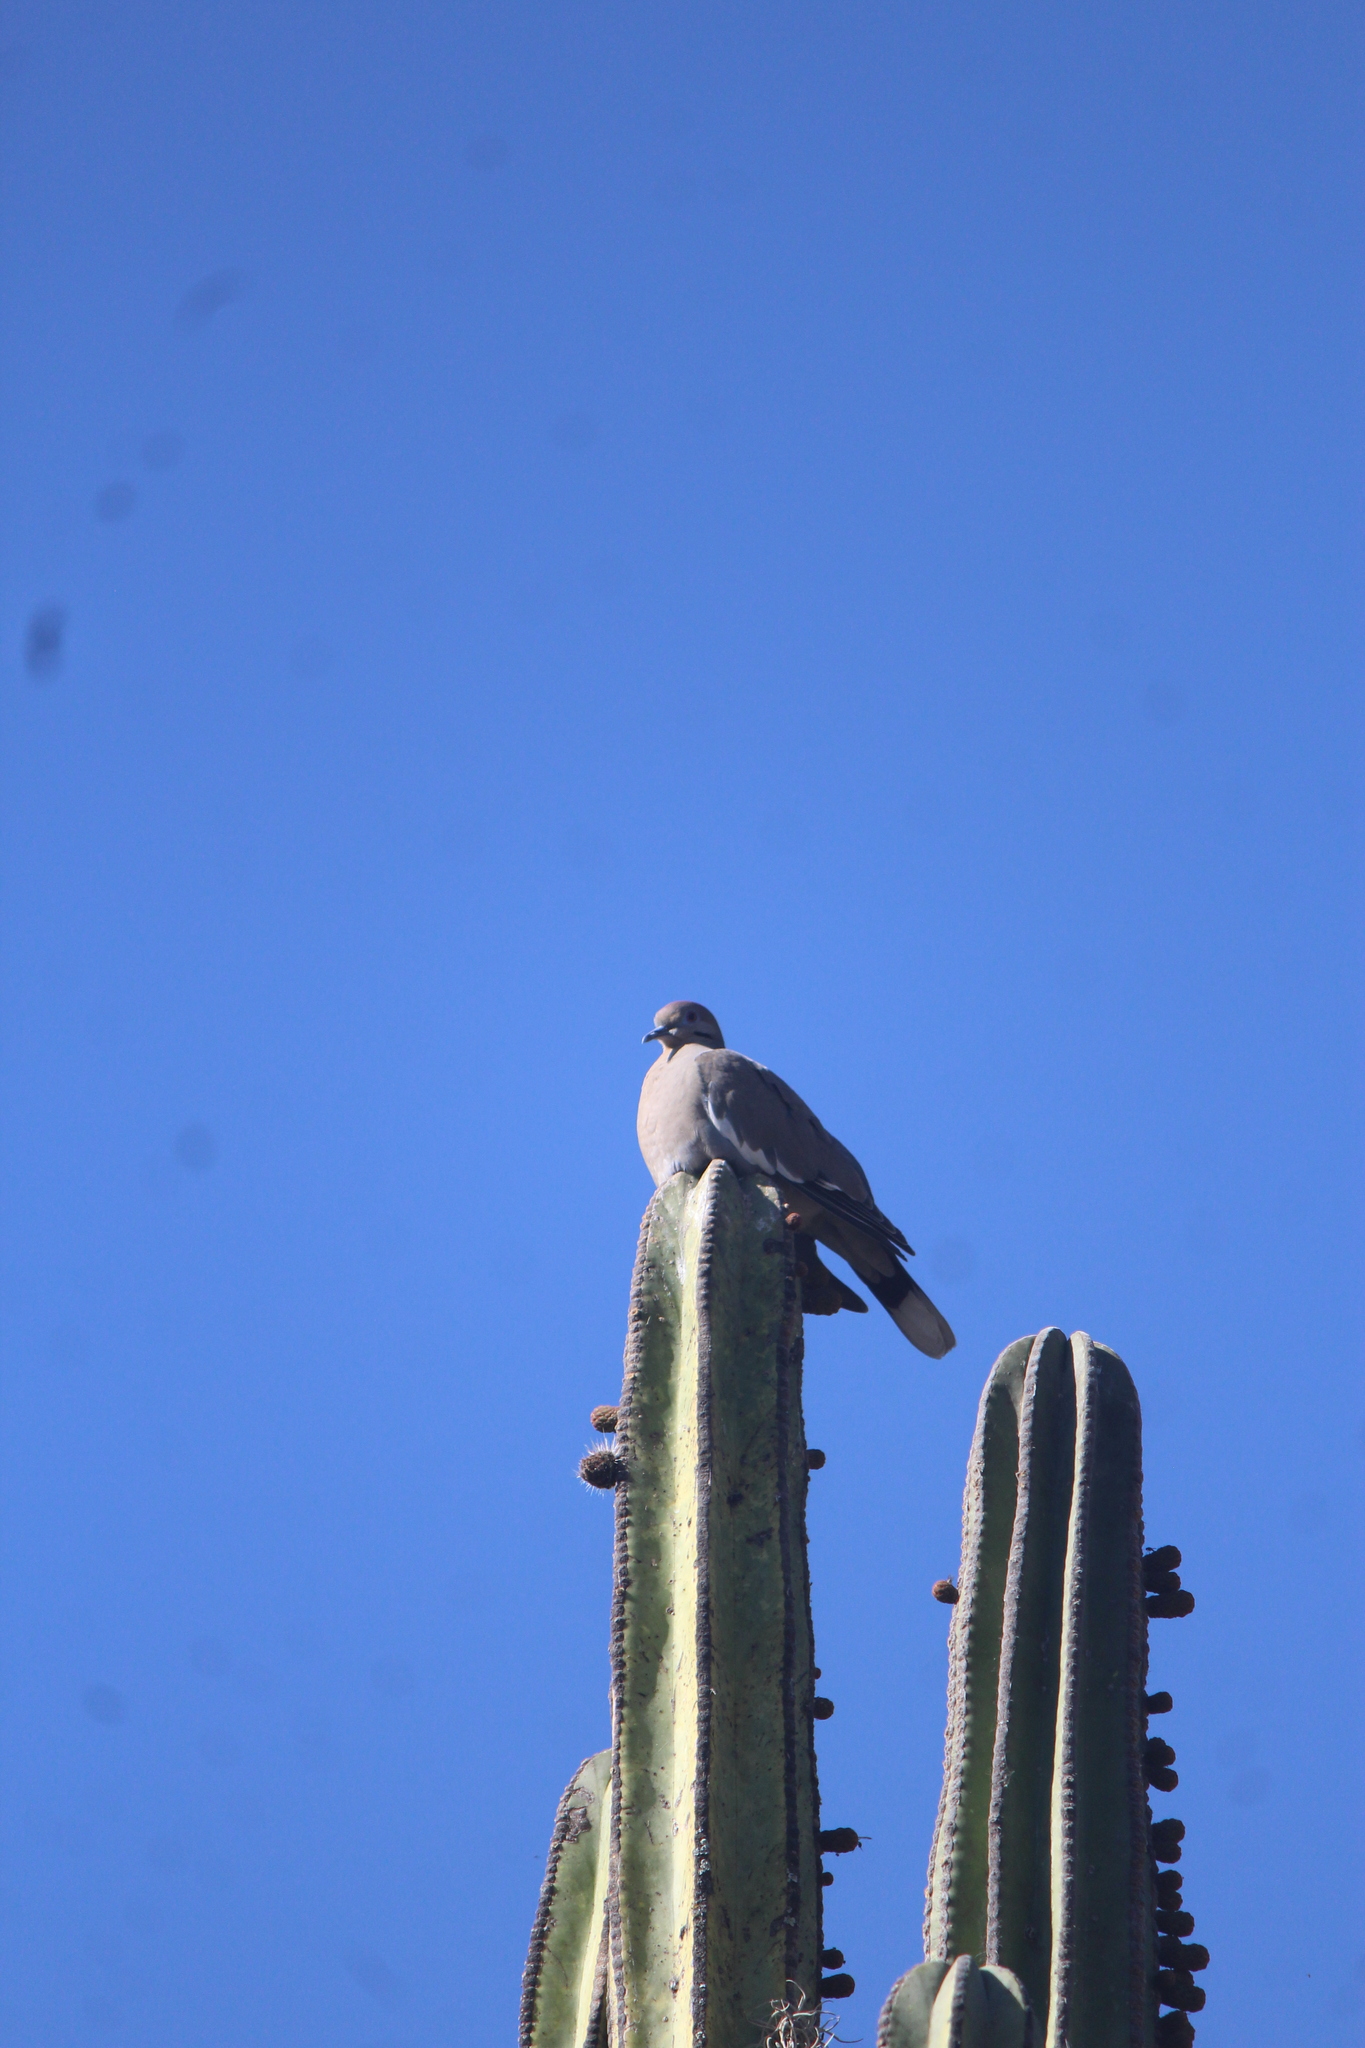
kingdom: Animalia
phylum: Chordata
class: Aves
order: Columbiformes
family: Columbidae
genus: Zenaida
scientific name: Zenaida asiatica
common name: White-winged dove
